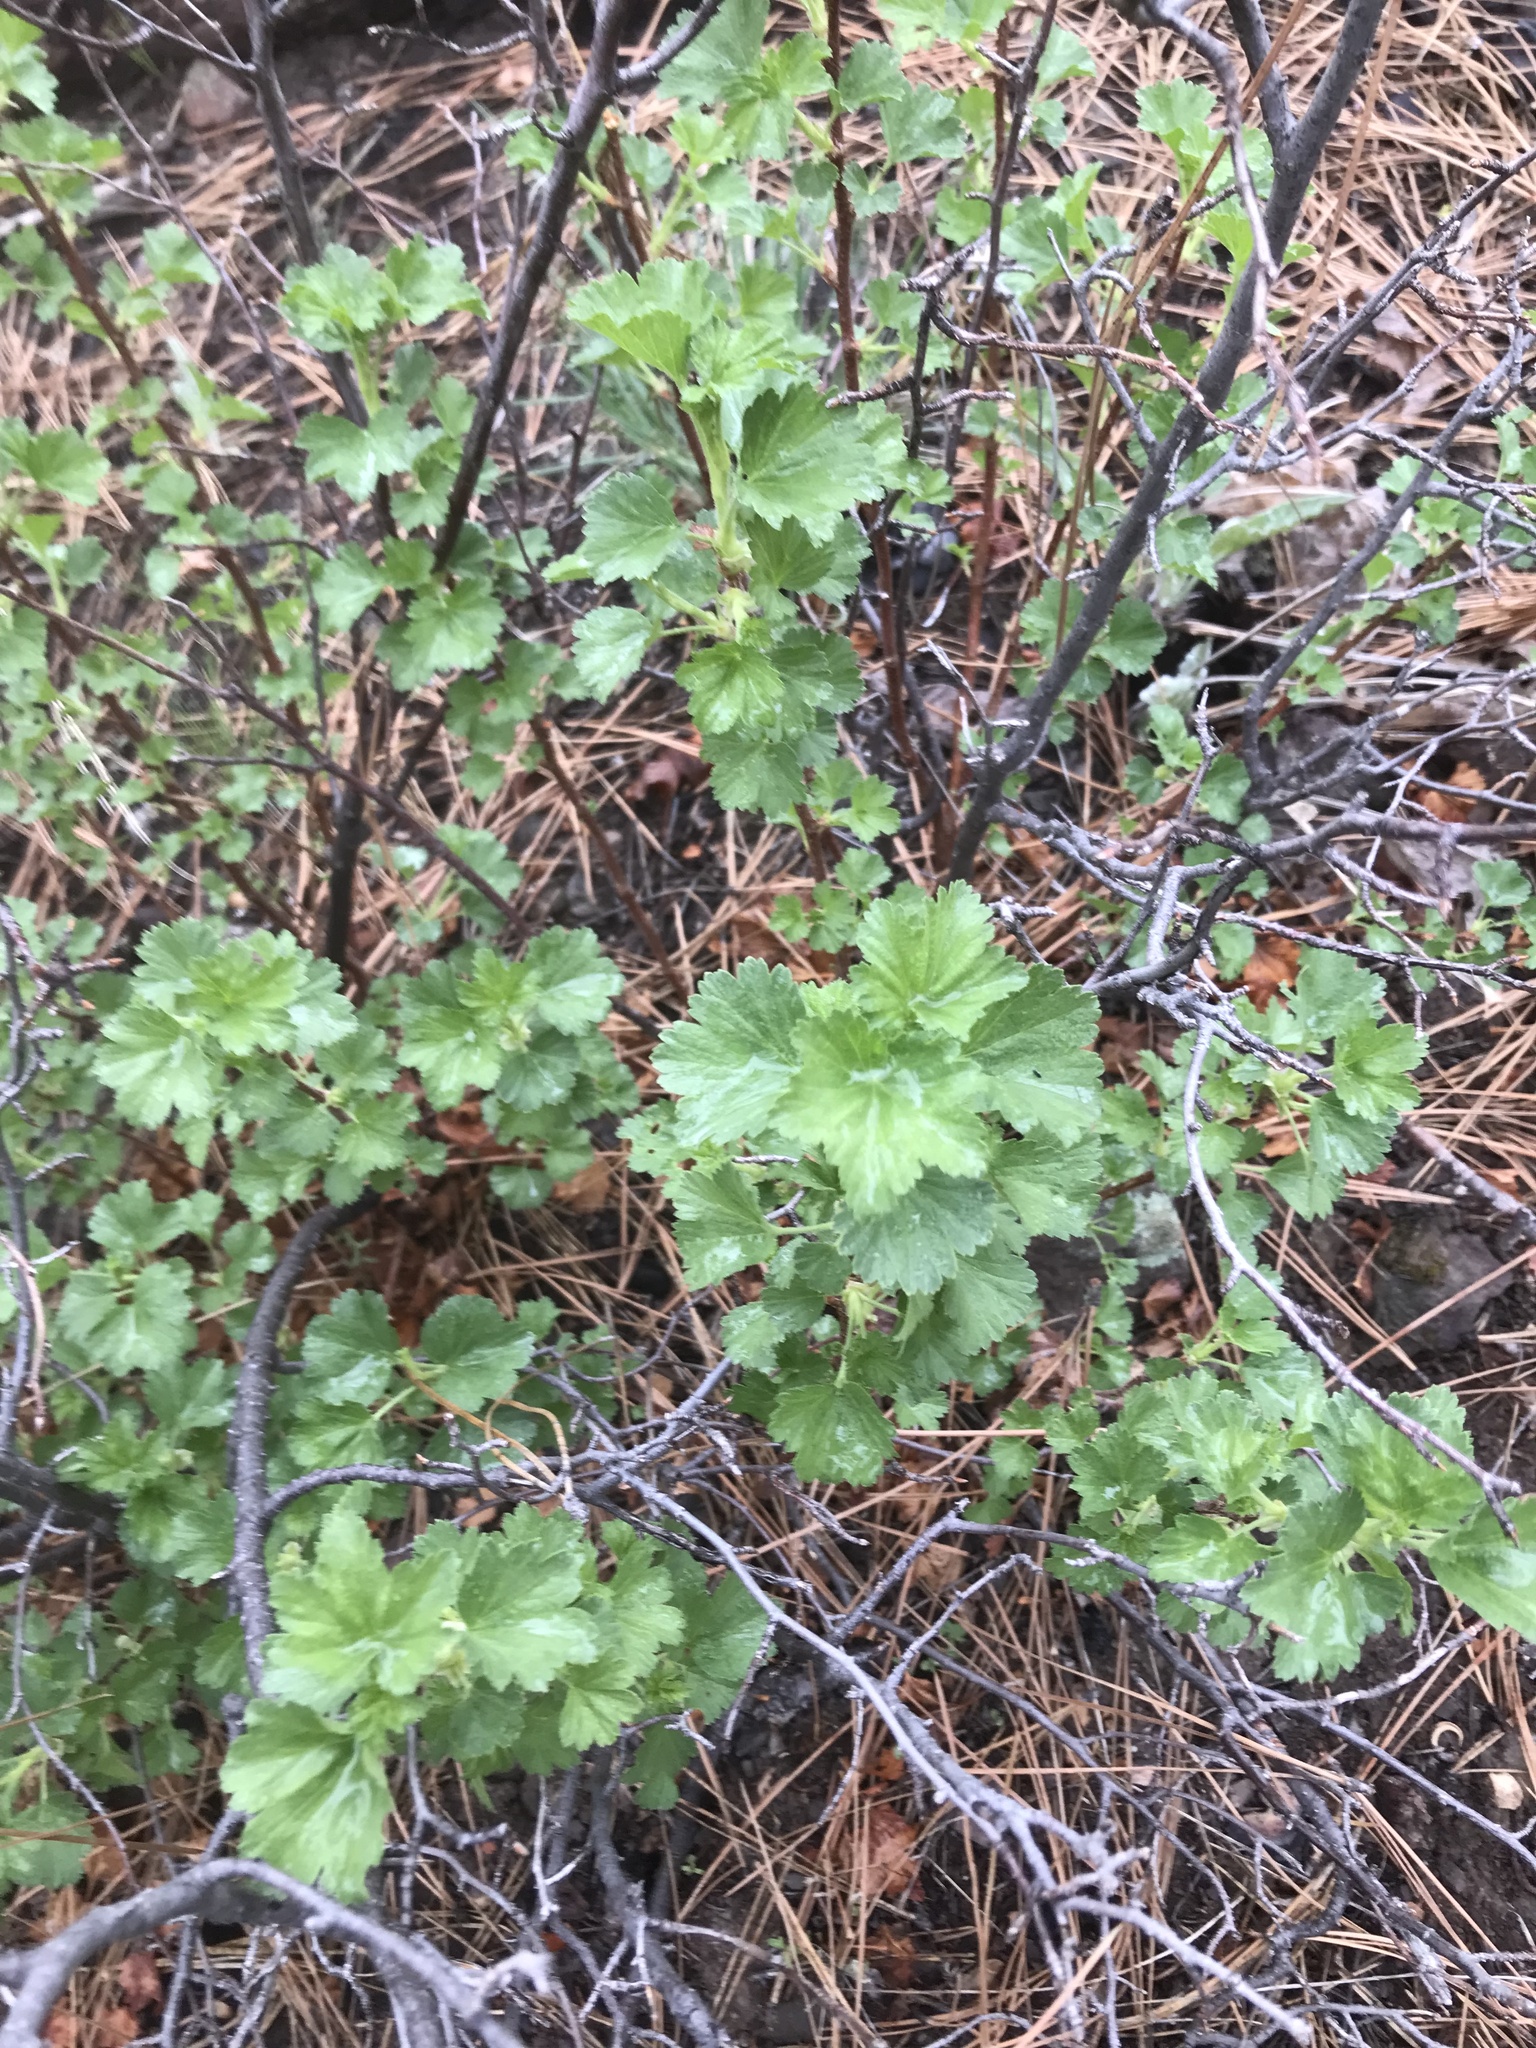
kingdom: Plantae
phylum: Tracheophyta
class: Magnoliopsida
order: Saxifragales
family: Grossulariaceae
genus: Ribes
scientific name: Ribes cereum
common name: Wax currant
